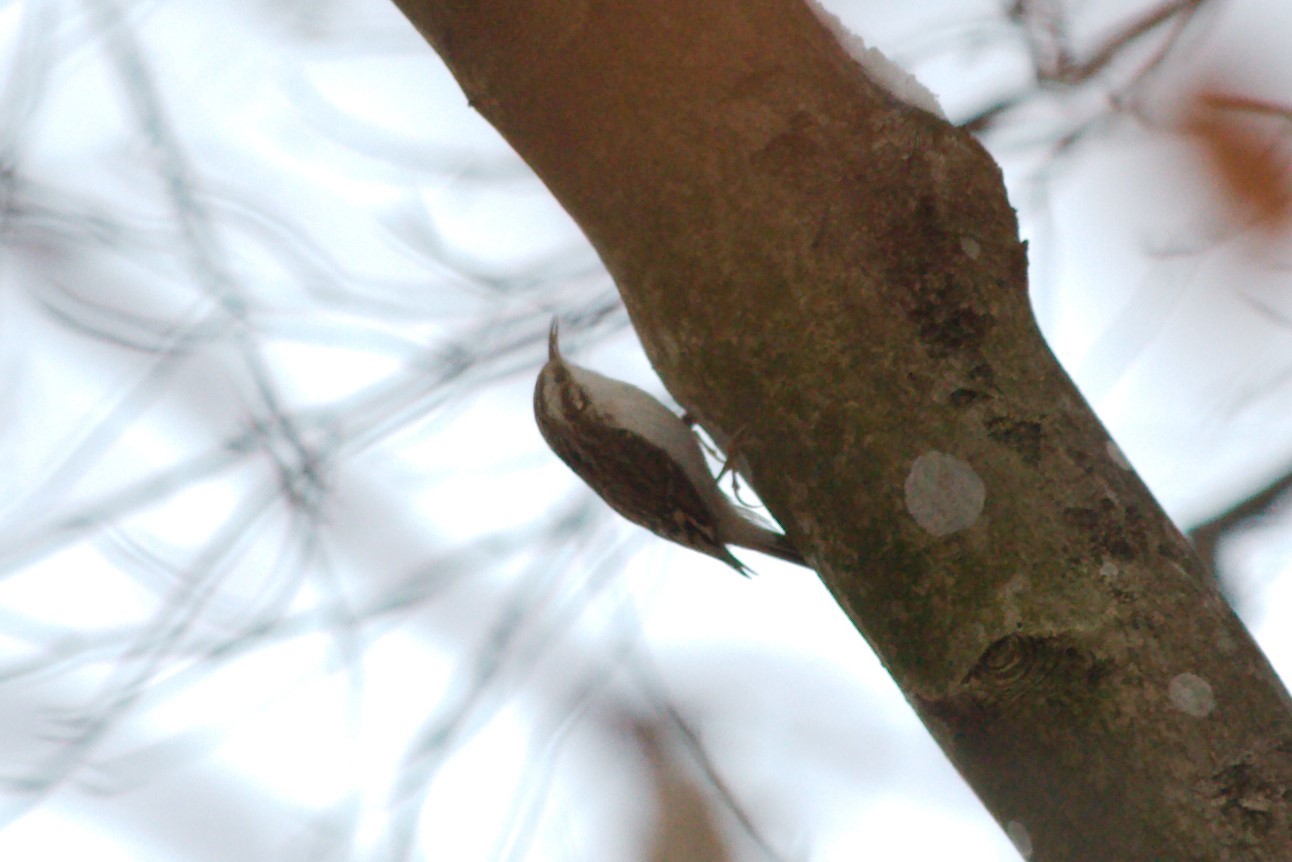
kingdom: Animalia
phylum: Chordata
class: Aves
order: Passeriformes
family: Certhiidae
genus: Certhia
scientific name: Certhia
